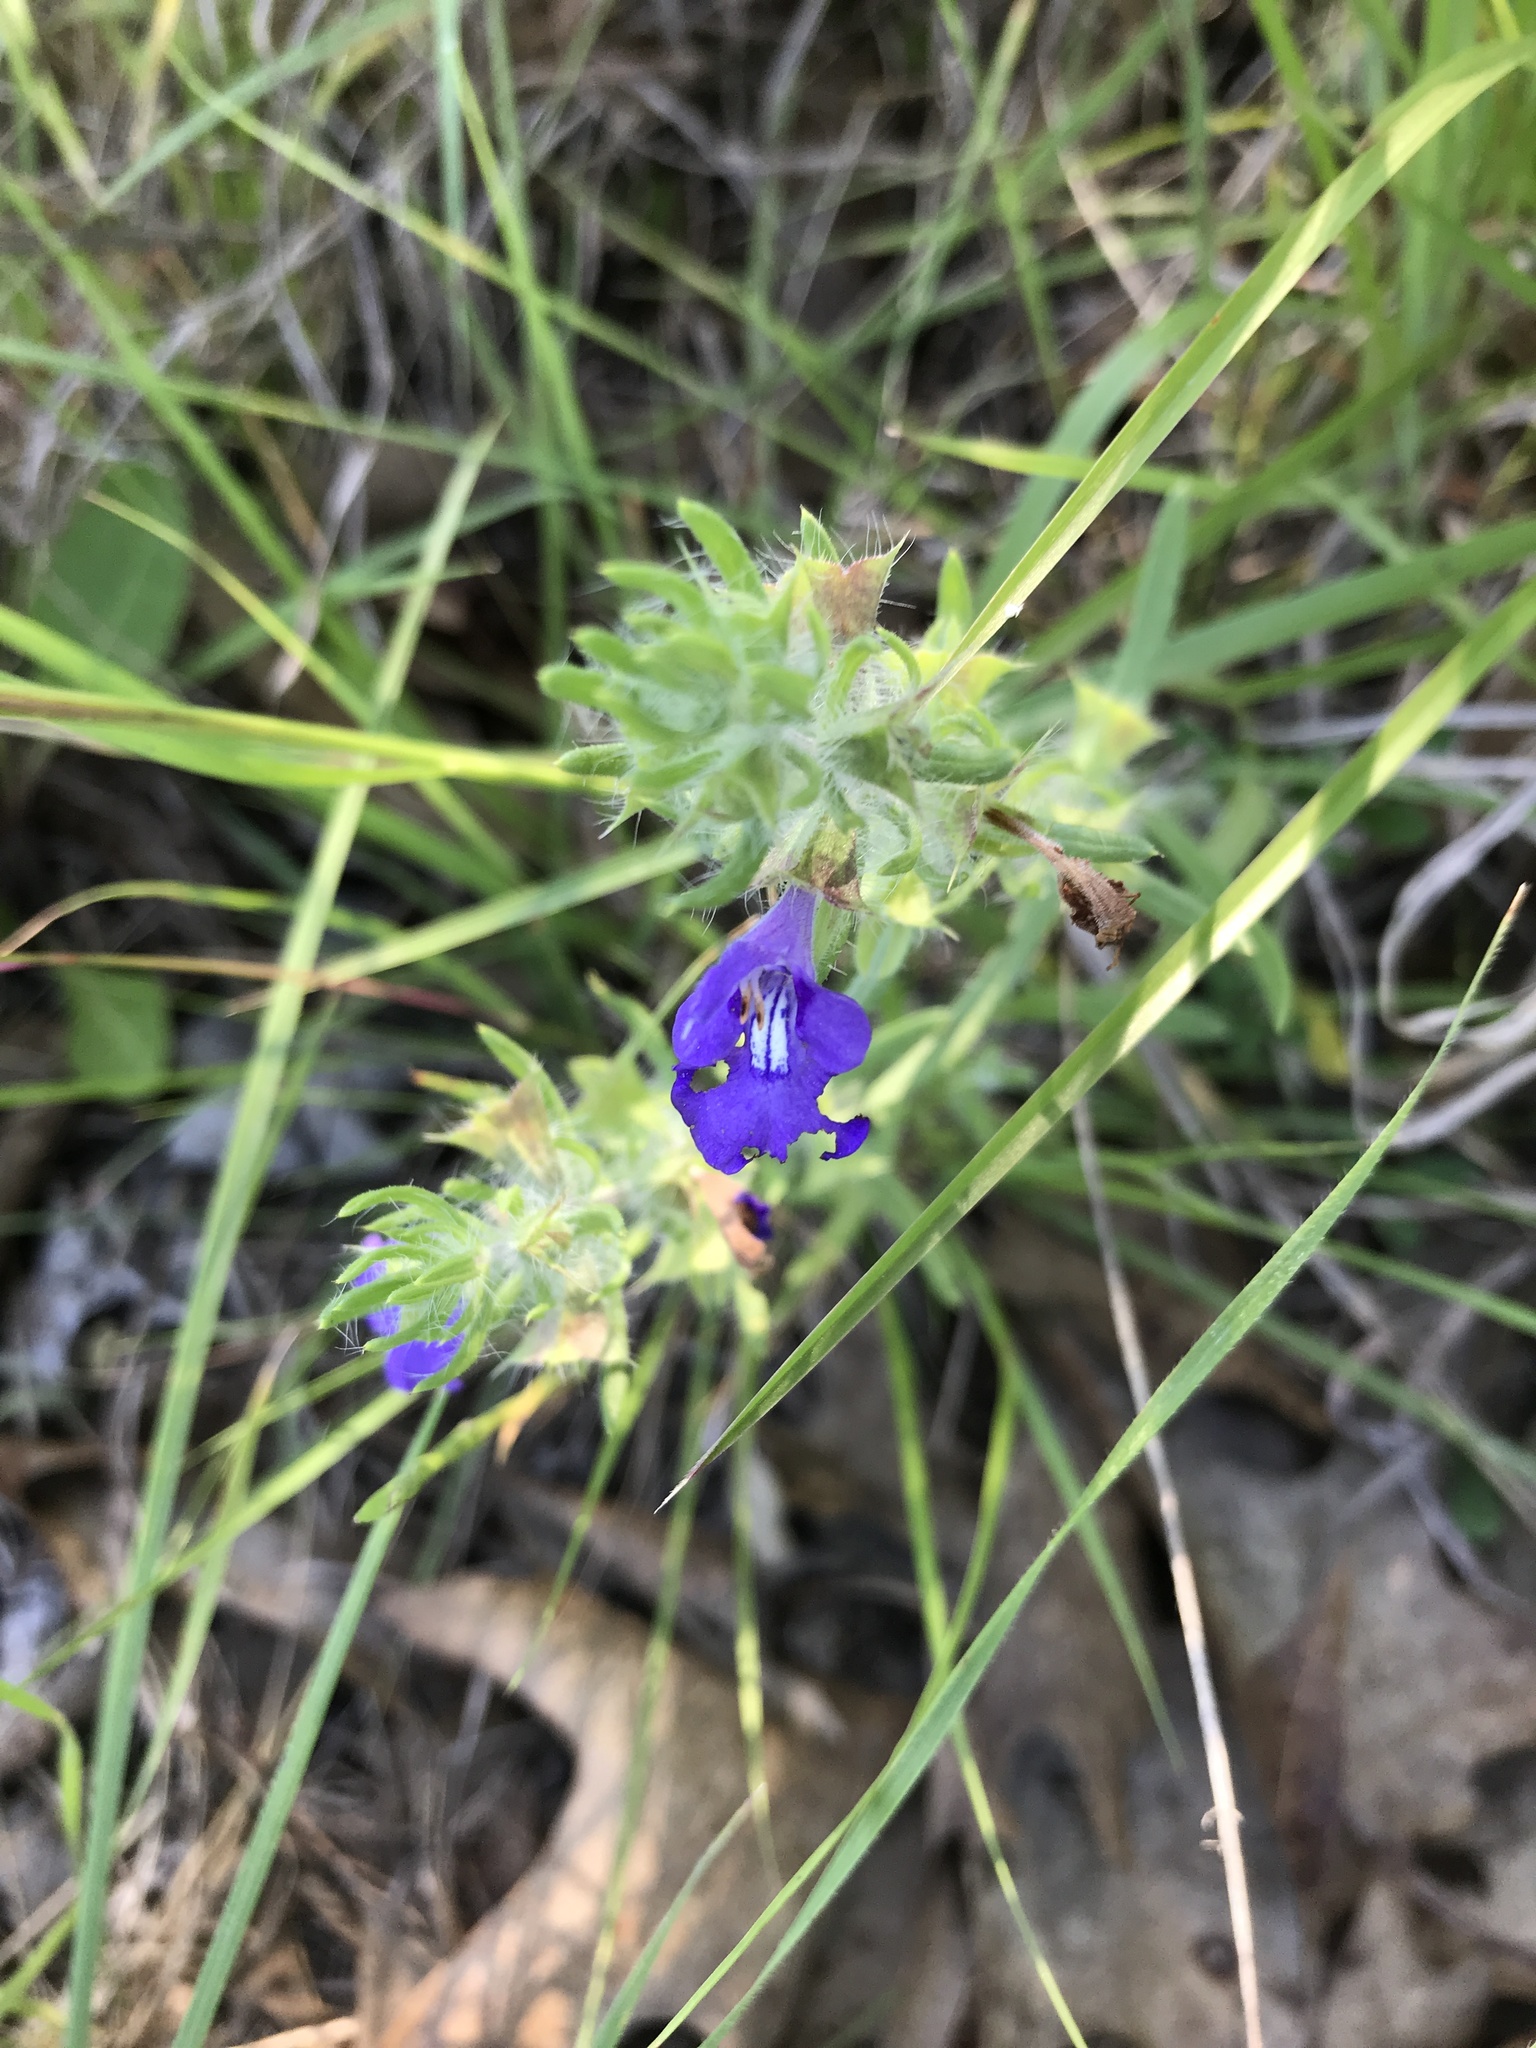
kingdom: Plantae
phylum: Tracheophyta
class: Magnoliopsida
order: Lamiales
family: Lamiaceae
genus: Salvia
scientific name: Salvia texana
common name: Texas sage
